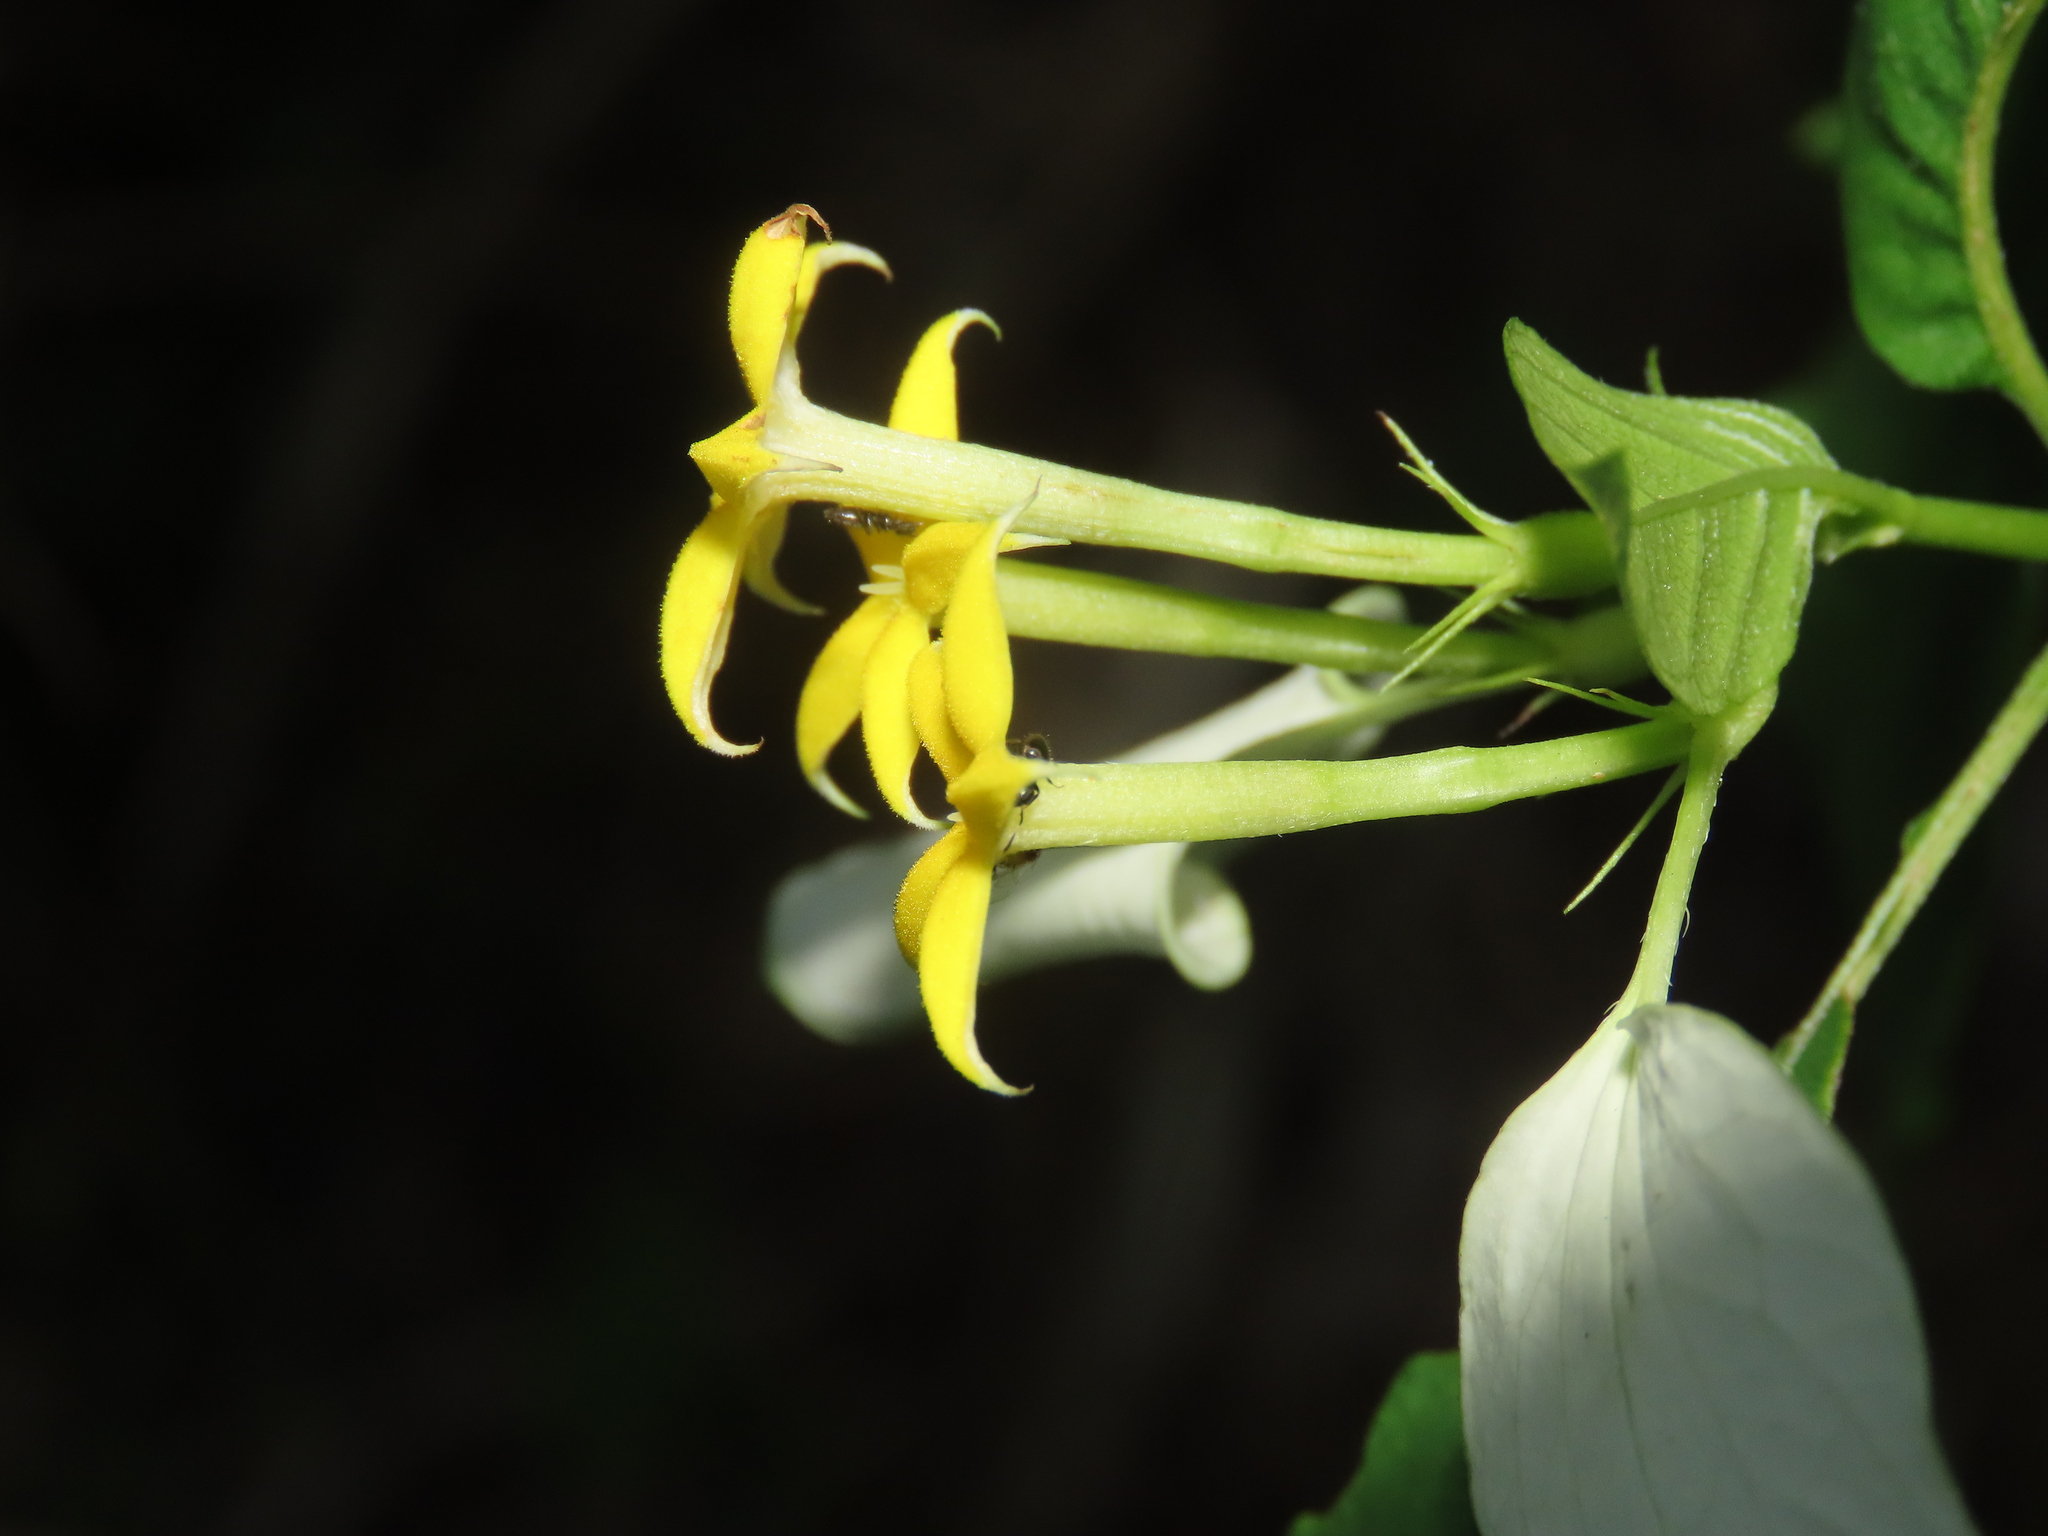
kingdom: Plantae
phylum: Tracheophyta
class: Magnoliopsida
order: Gentianales
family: Rubiaceae
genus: Mussaenda
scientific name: Mussaenda formosana
